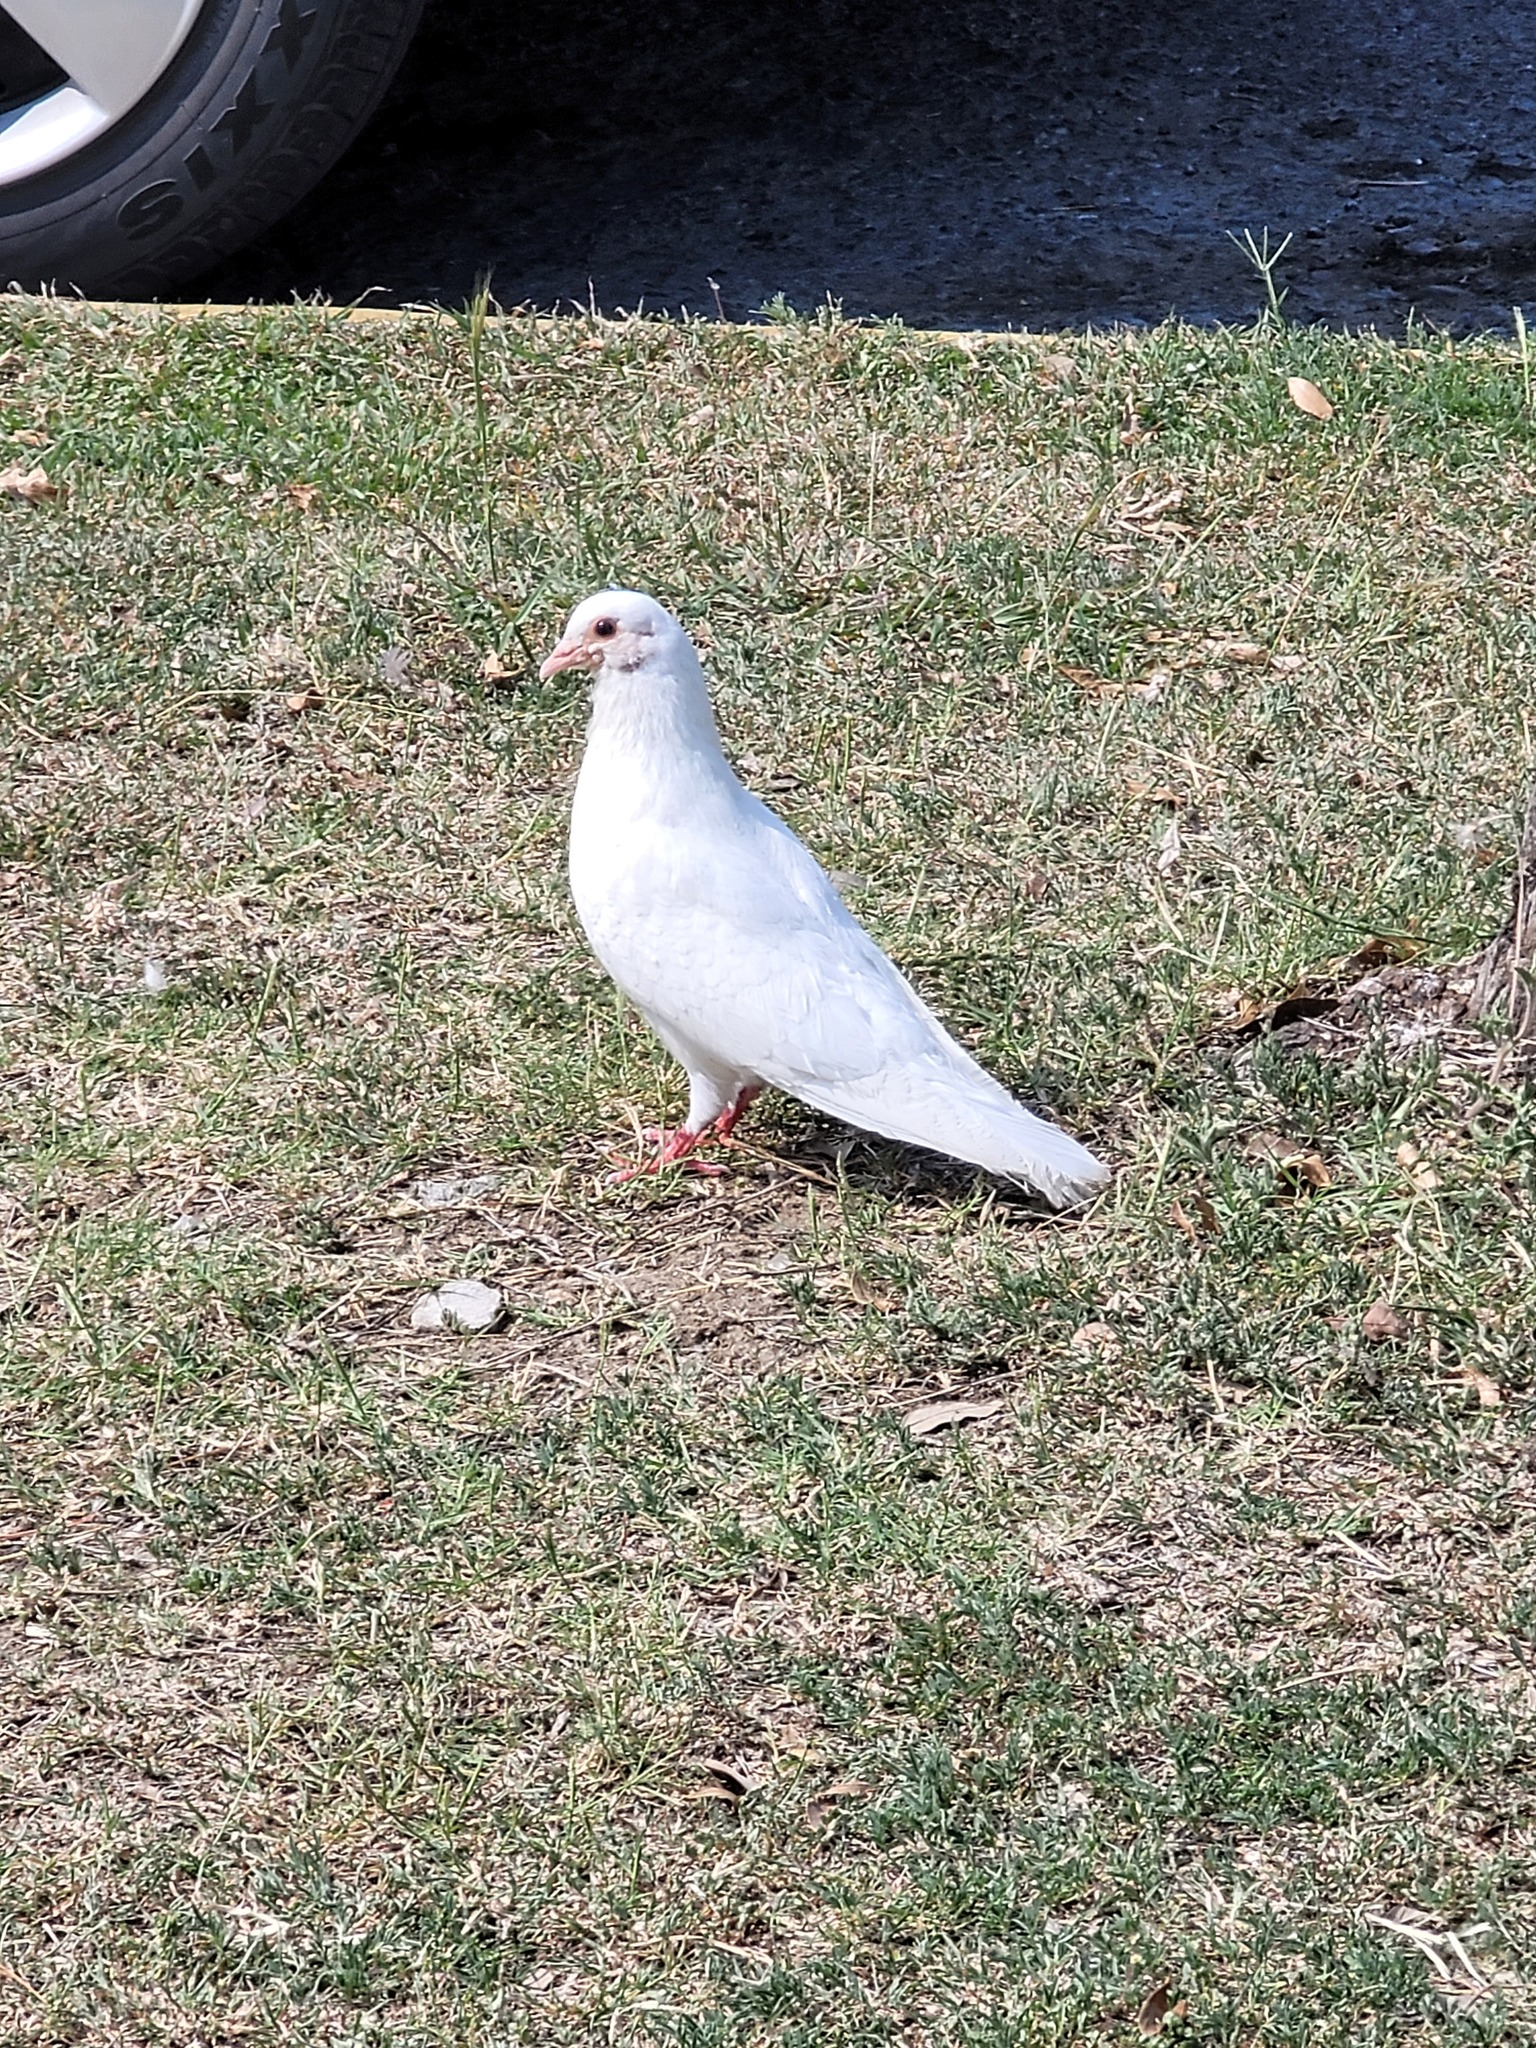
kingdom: Animalia
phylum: Chordata
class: Aves
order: Columbiformes
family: Columbidae
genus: Columba
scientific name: Columba livia
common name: Rock pigeon
